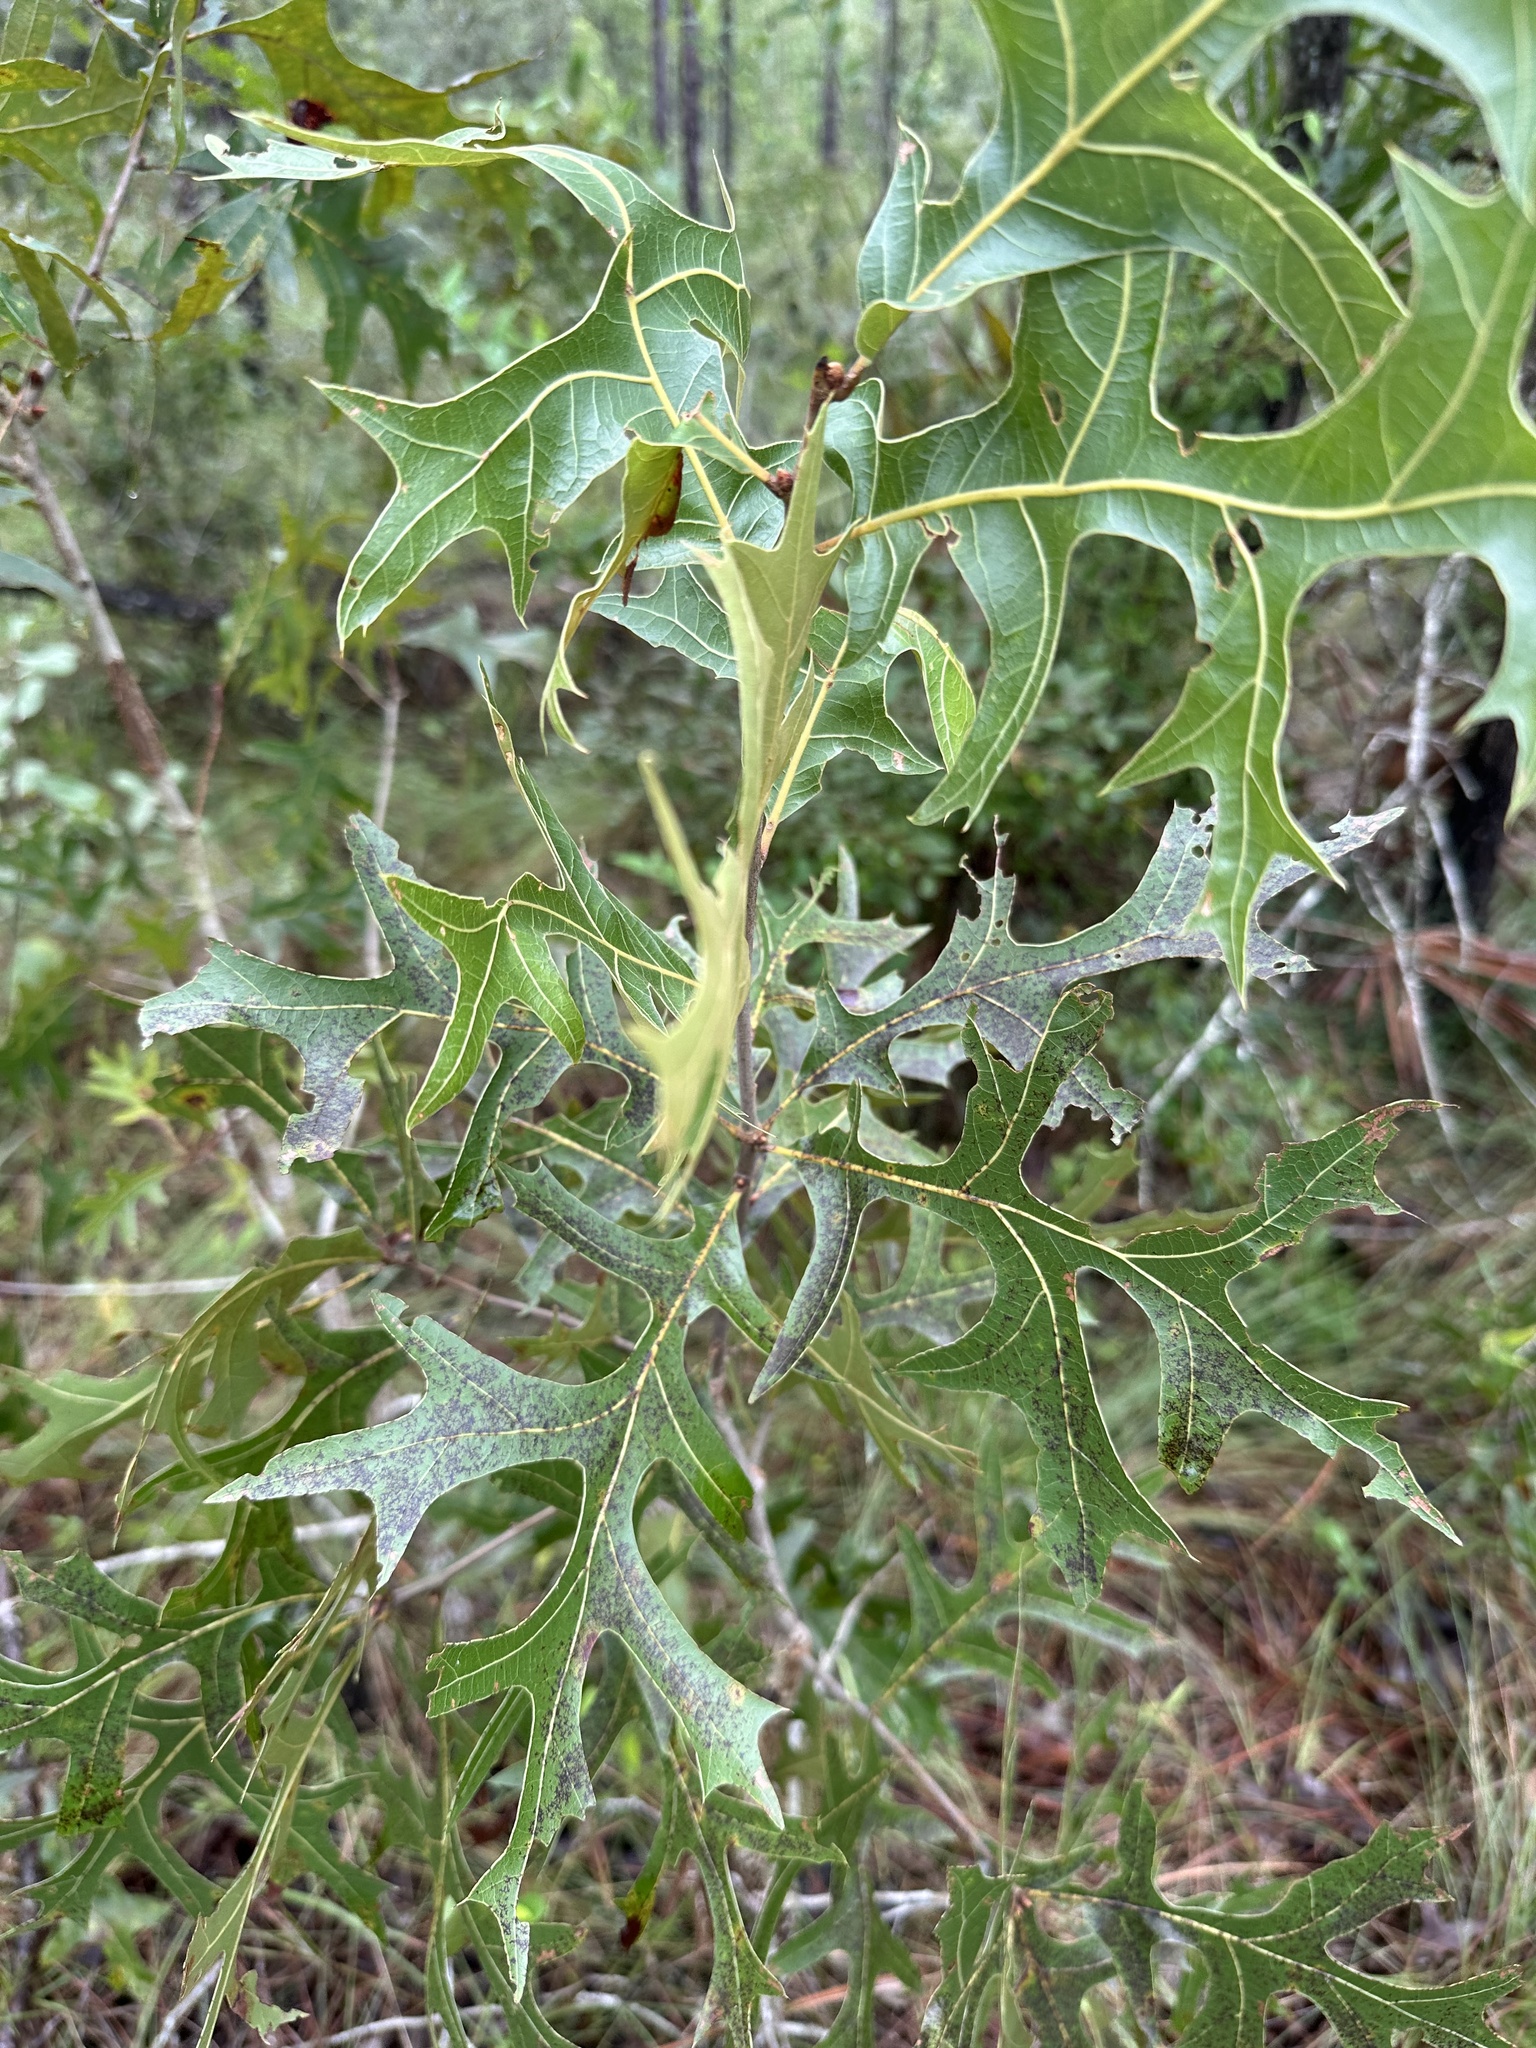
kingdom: Plantae
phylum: Tracheophyta
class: Magnoliopsida
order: Fagales
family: Fagaceae
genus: Quercus
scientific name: Quercus laevis
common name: Turkey oak
